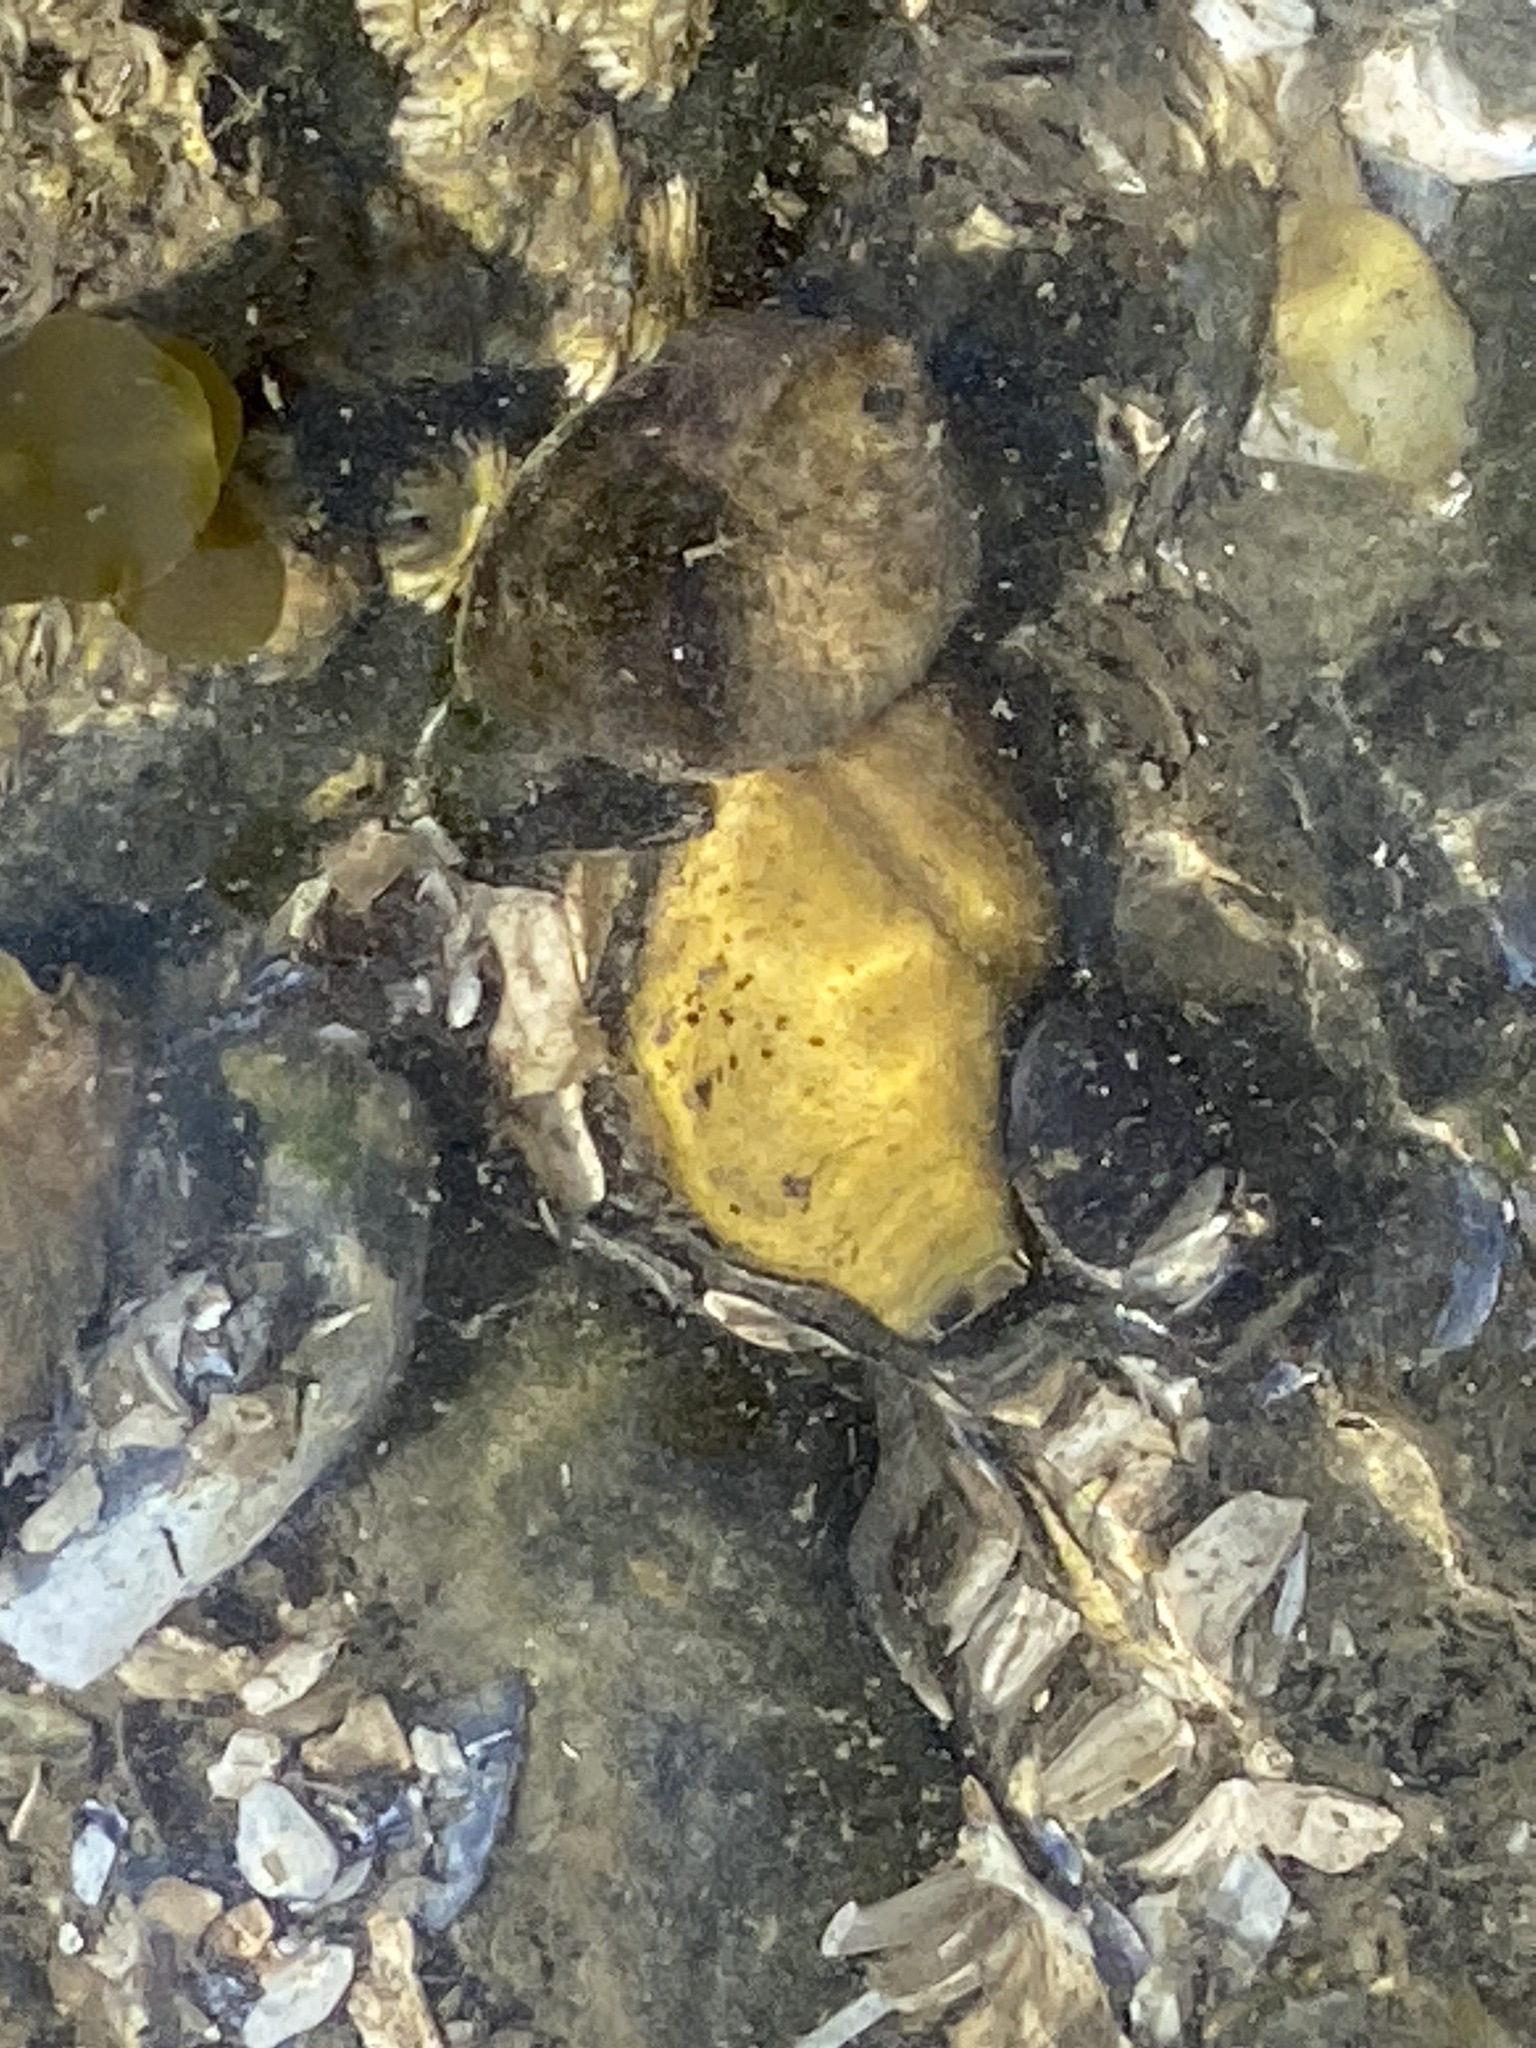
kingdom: Animalia
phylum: Mollusca
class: Gastropoda
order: Littorinimorpha
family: Littorinidae
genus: Littorina
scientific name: Littorina littorea
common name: Common periwinkle
